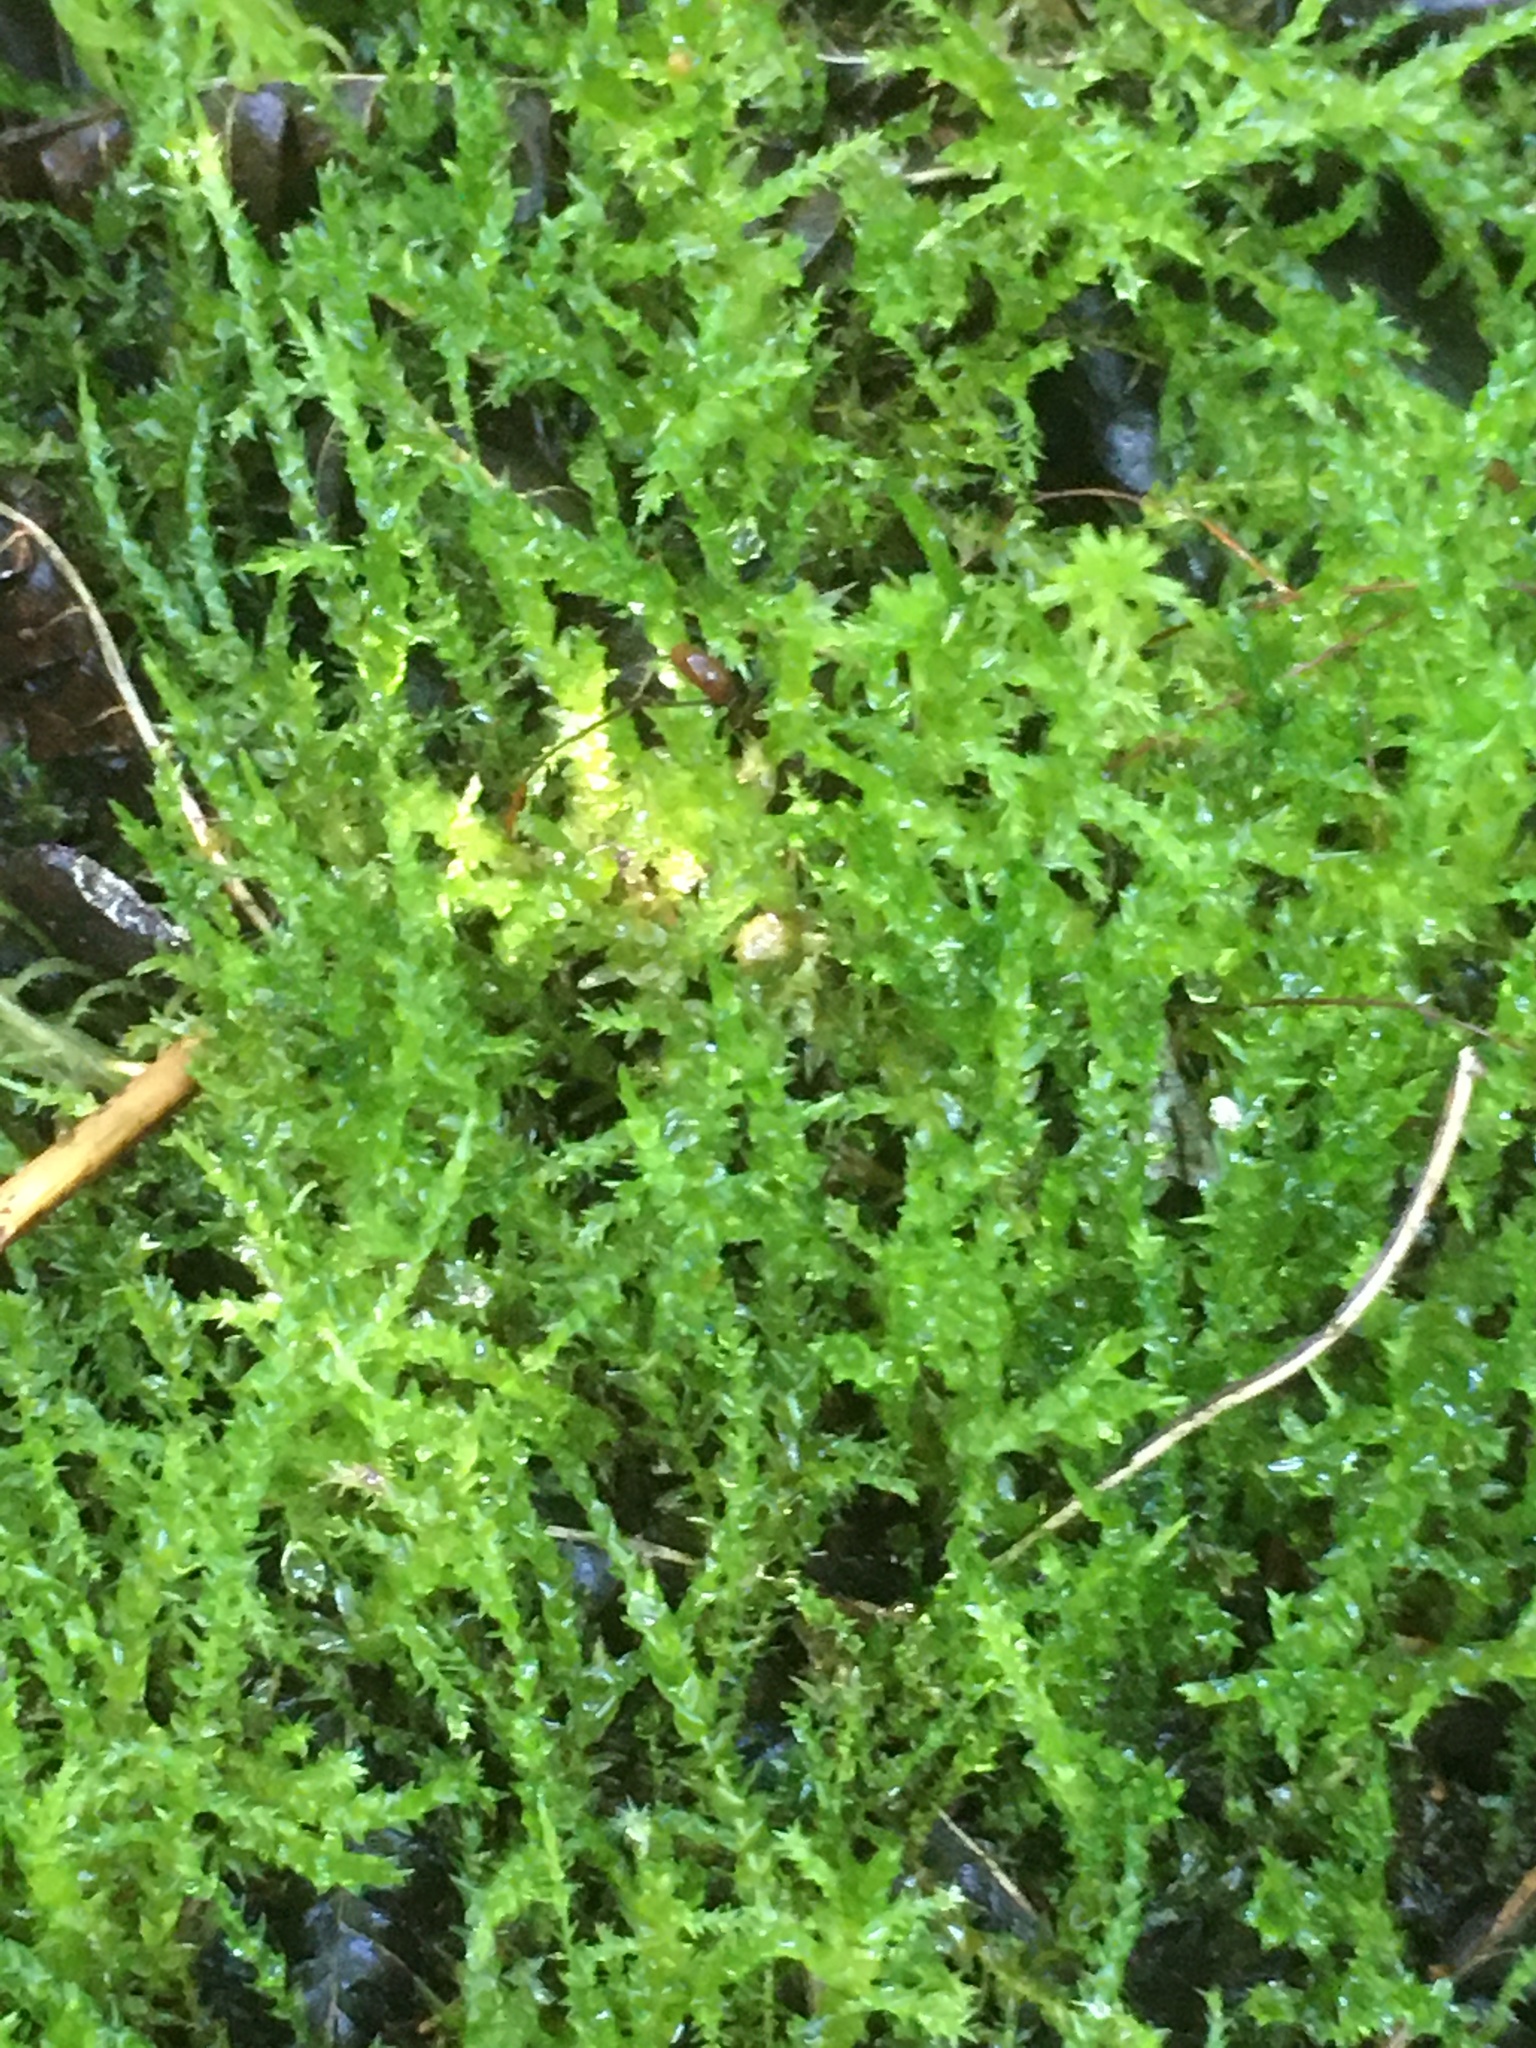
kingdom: Plantae
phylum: Bryophyta
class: Bryopsida
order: Hypnales
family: Calliergonaceae
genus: Calliergon
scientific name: Calliergon
